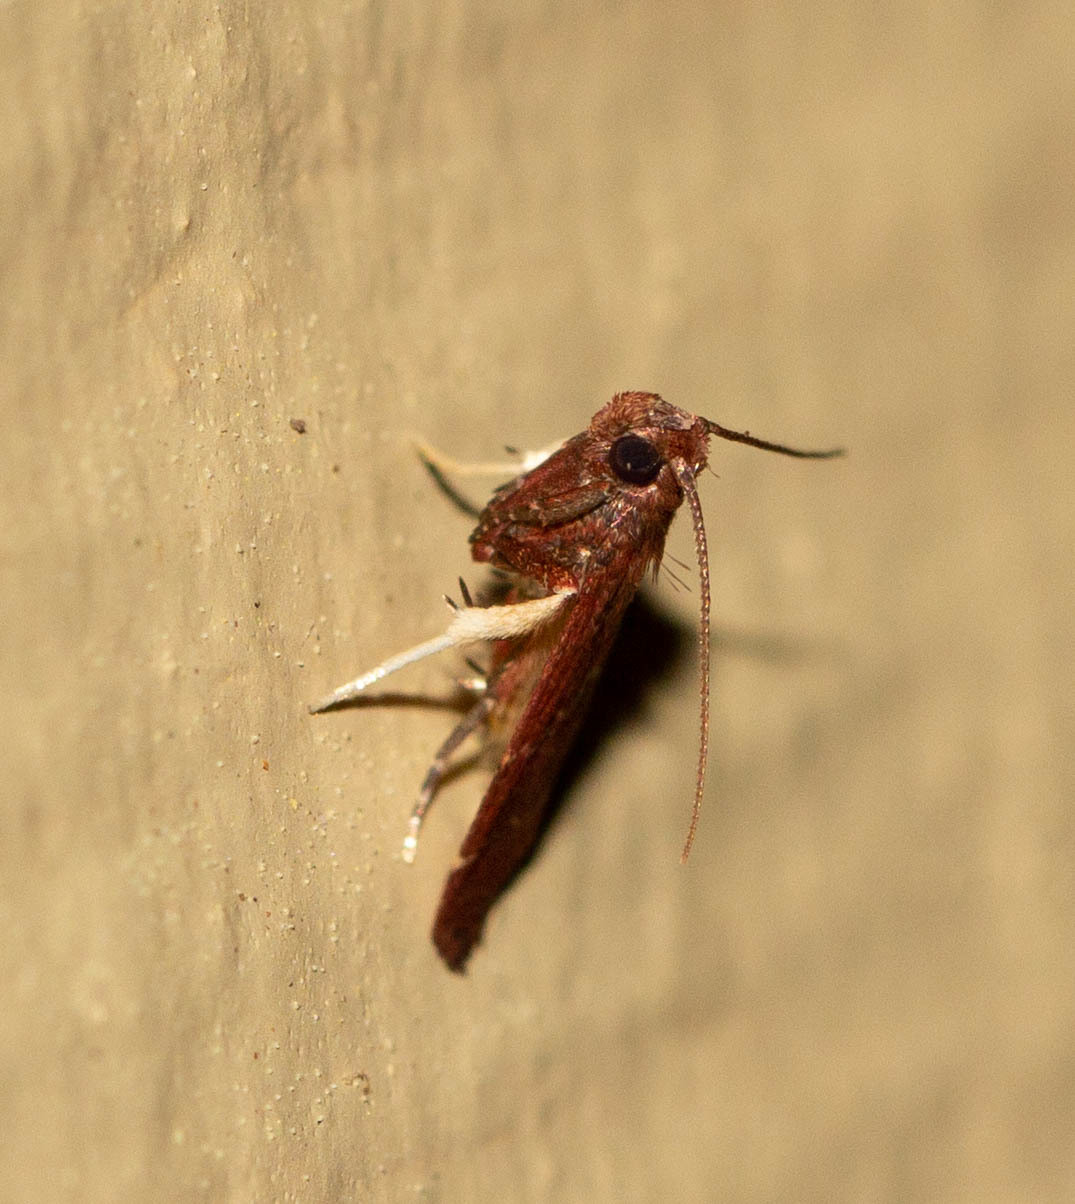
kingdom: Animalia
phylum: Arthropoda
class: Insecta
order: Lepidoptera
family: Pyralidae
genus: Arta
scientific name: Arta
